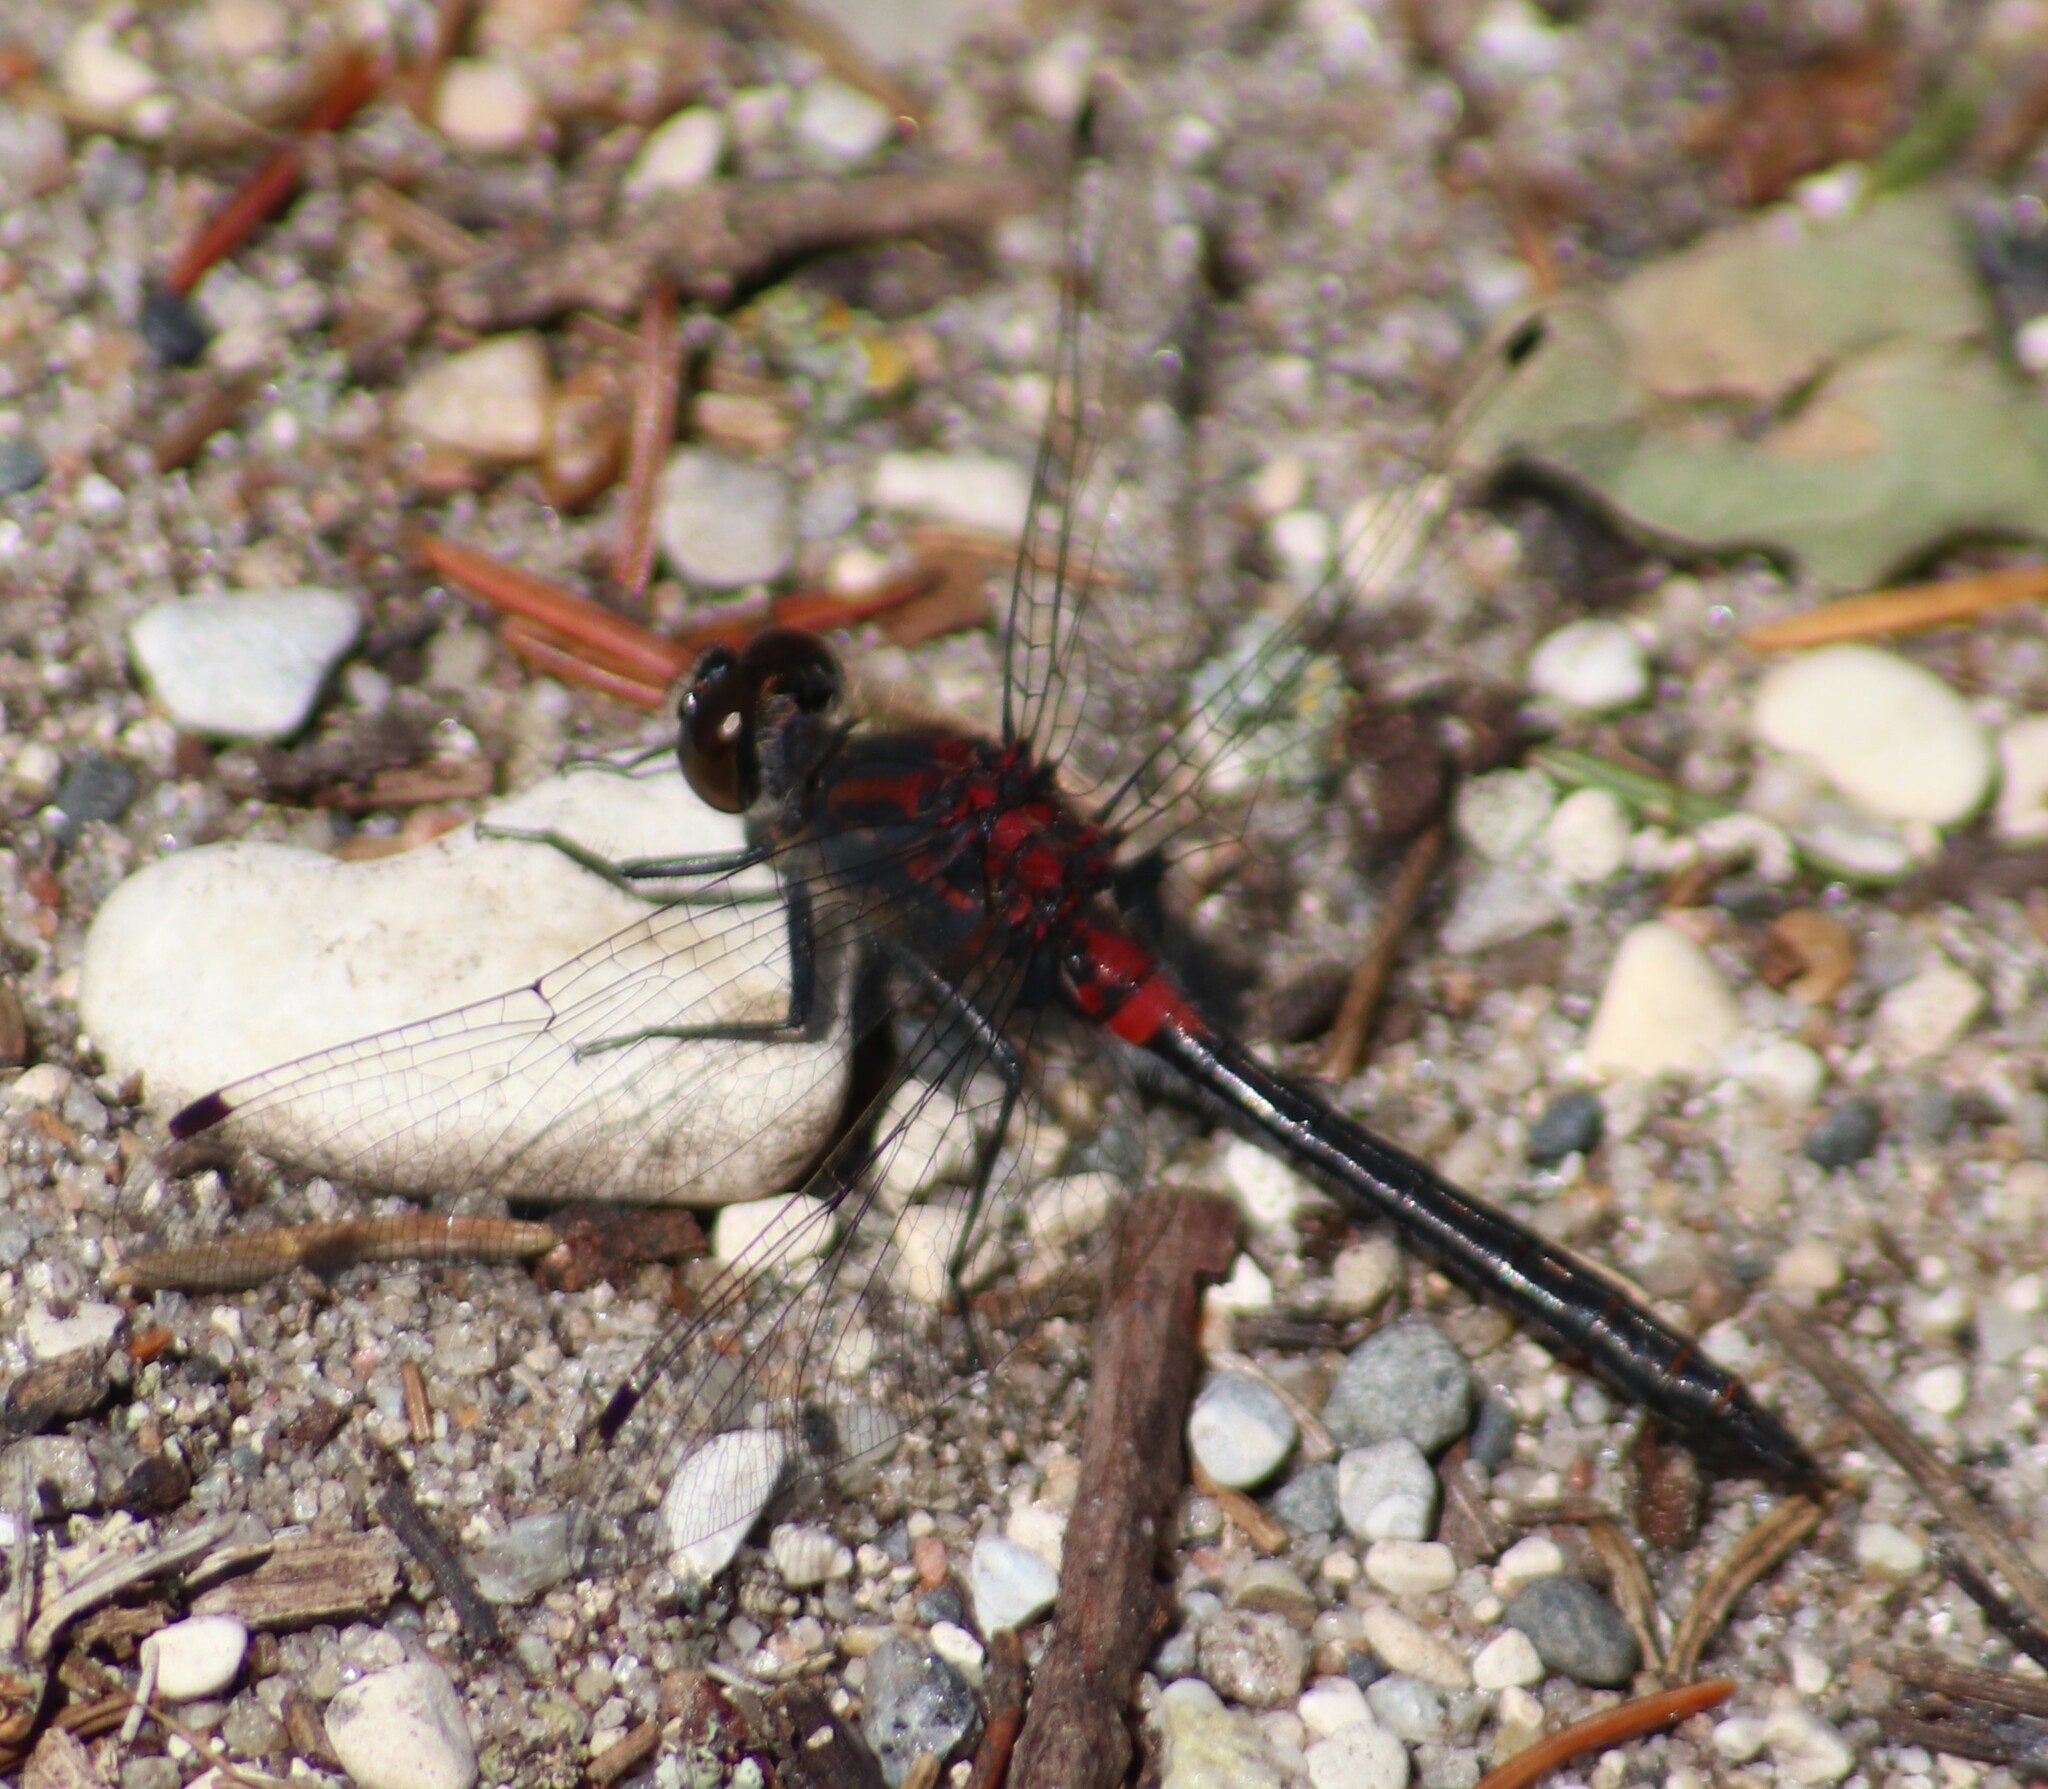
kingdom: Animalia
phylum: Arthropoda
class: Insecta
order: Odonata
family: Libellulidae
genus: Leucorrhinia
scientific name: Leucorrhinia proxima
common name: Belted whiteface
